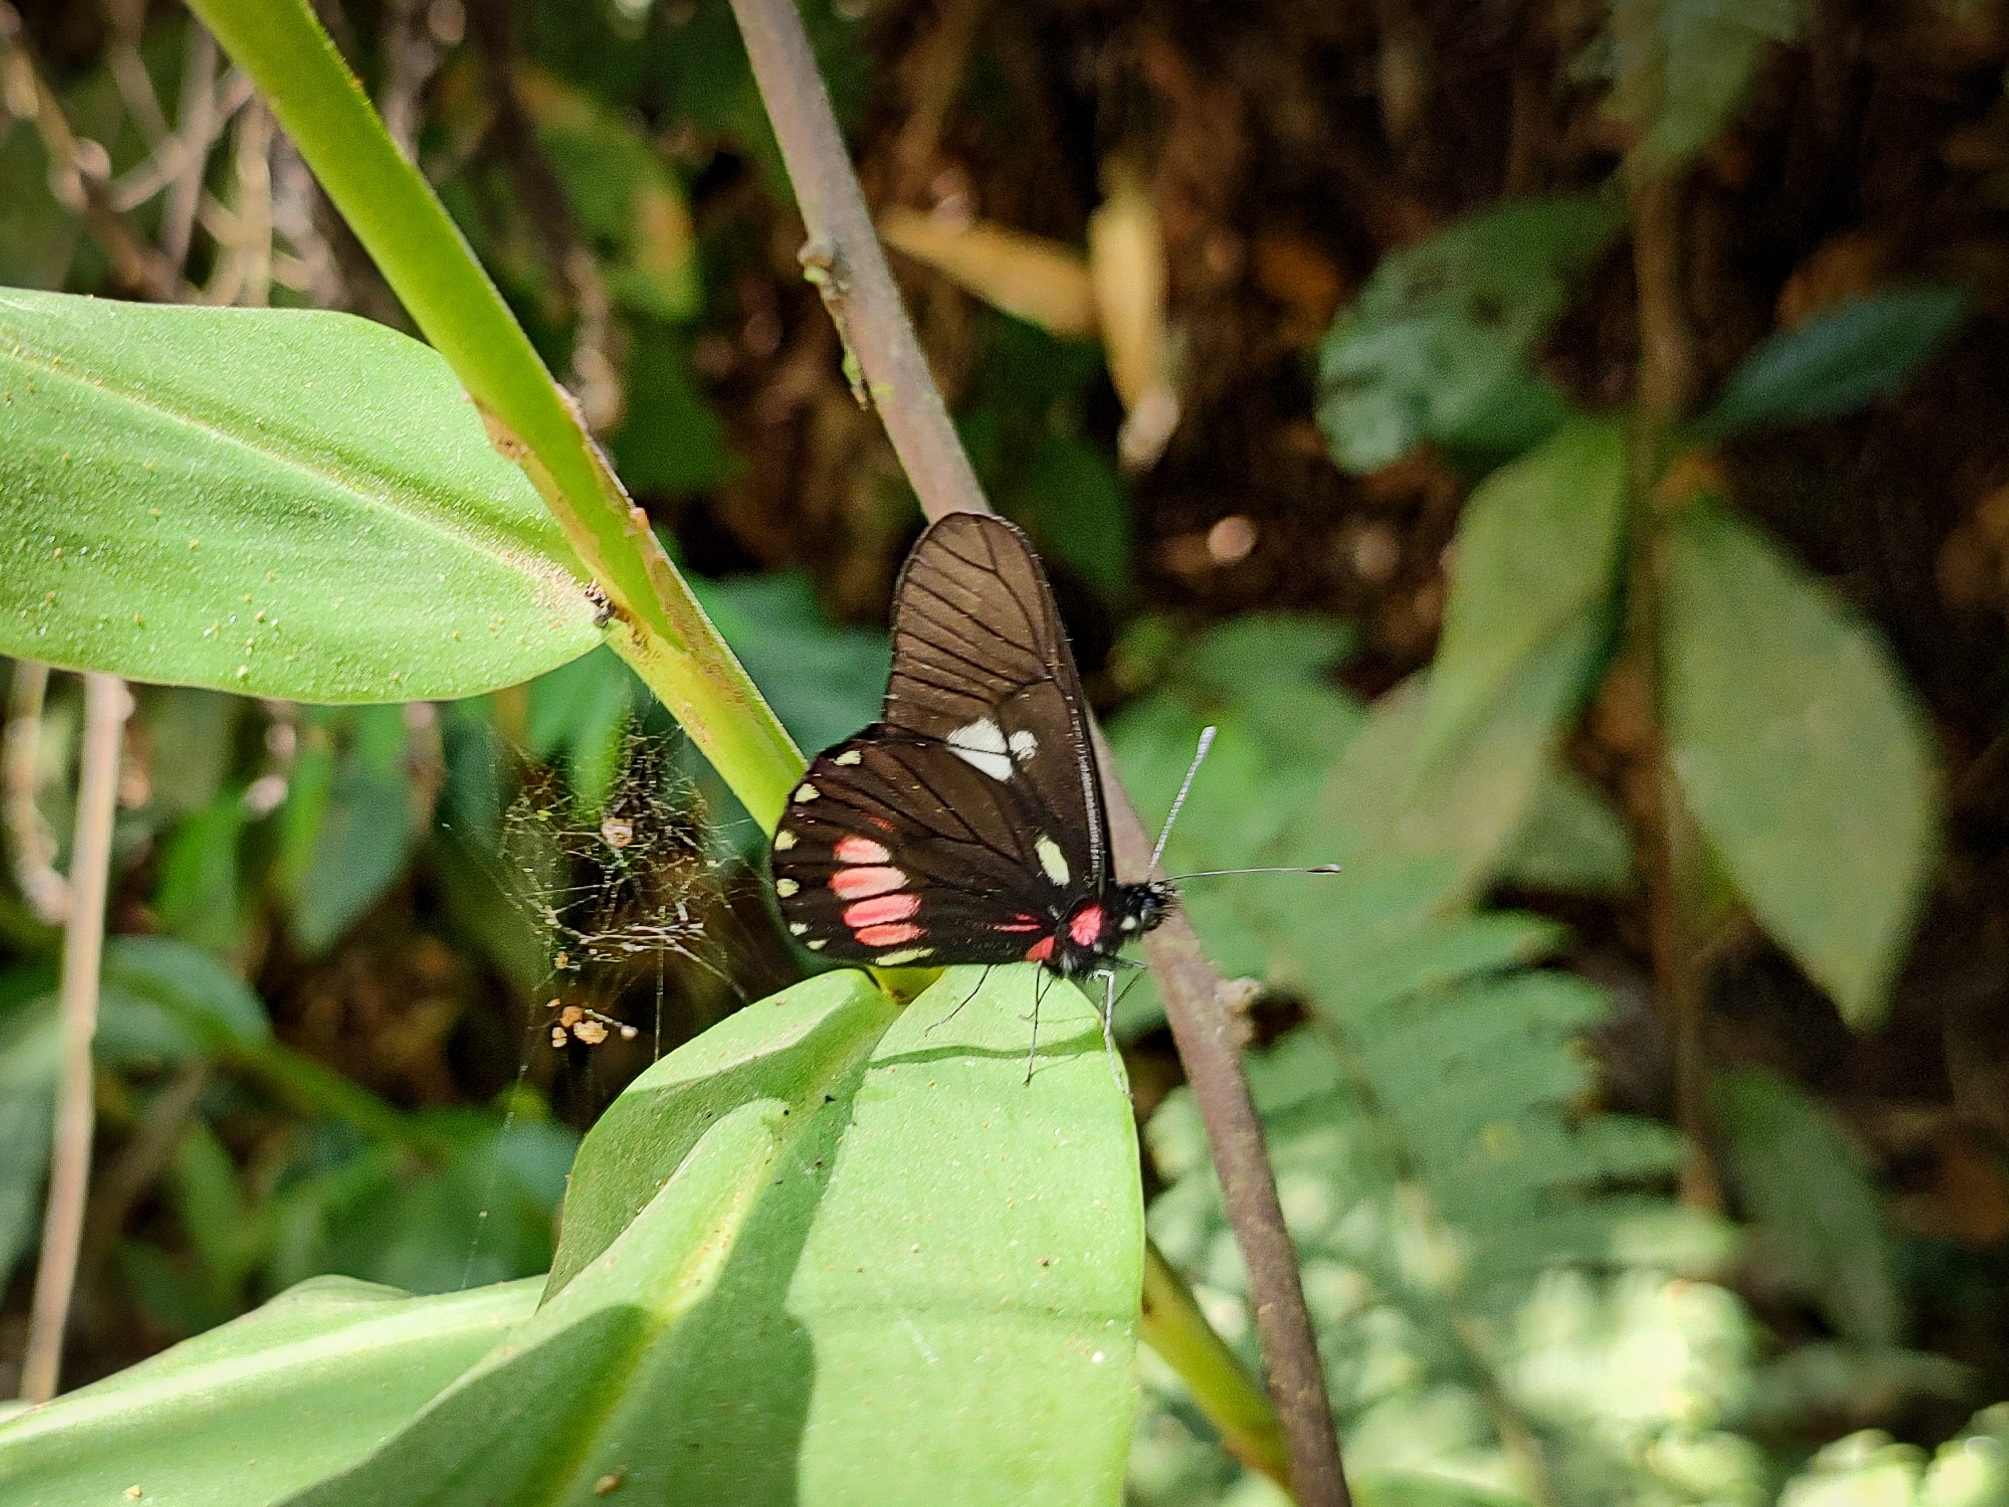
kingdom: Animalia
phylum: Arthropoda
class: Insecta
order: Lepidoptera
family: Pieridae
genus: Archonias
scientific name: Archonias brassolis
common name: Cattleheart white
